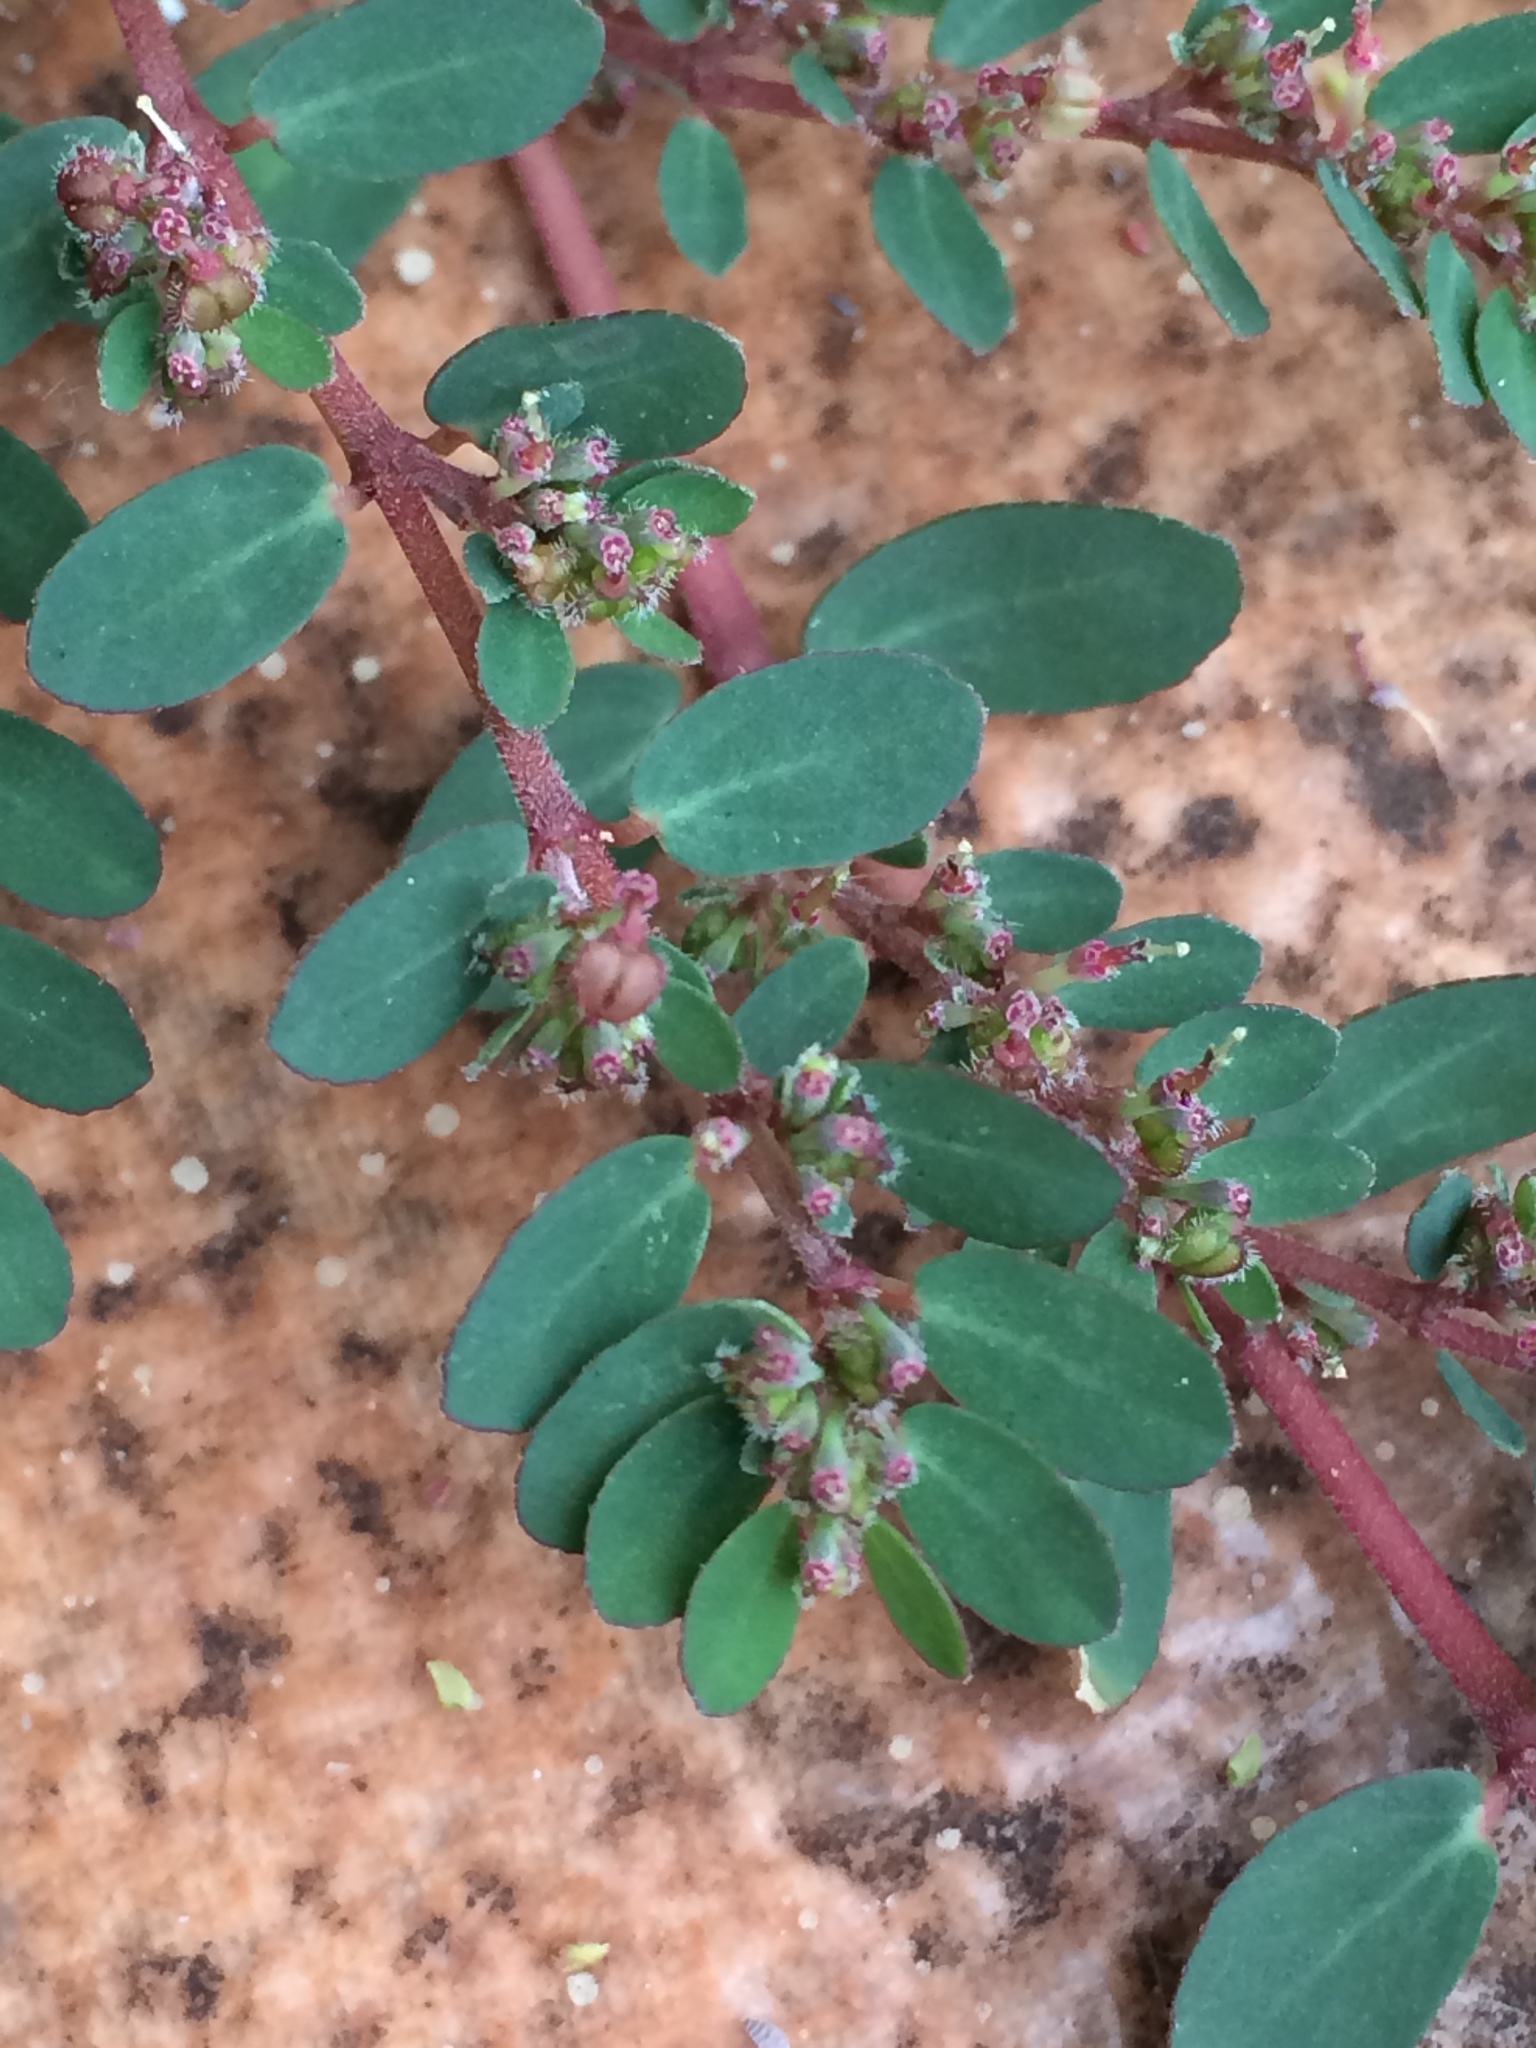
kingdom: Plantae
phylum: Tracheophyta
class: Magnoliopsida
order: Malpighiales
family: Euphorbiaceae
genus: Euphorbia
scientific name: Euphorbia prostrata
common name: Prostrate sandmat
